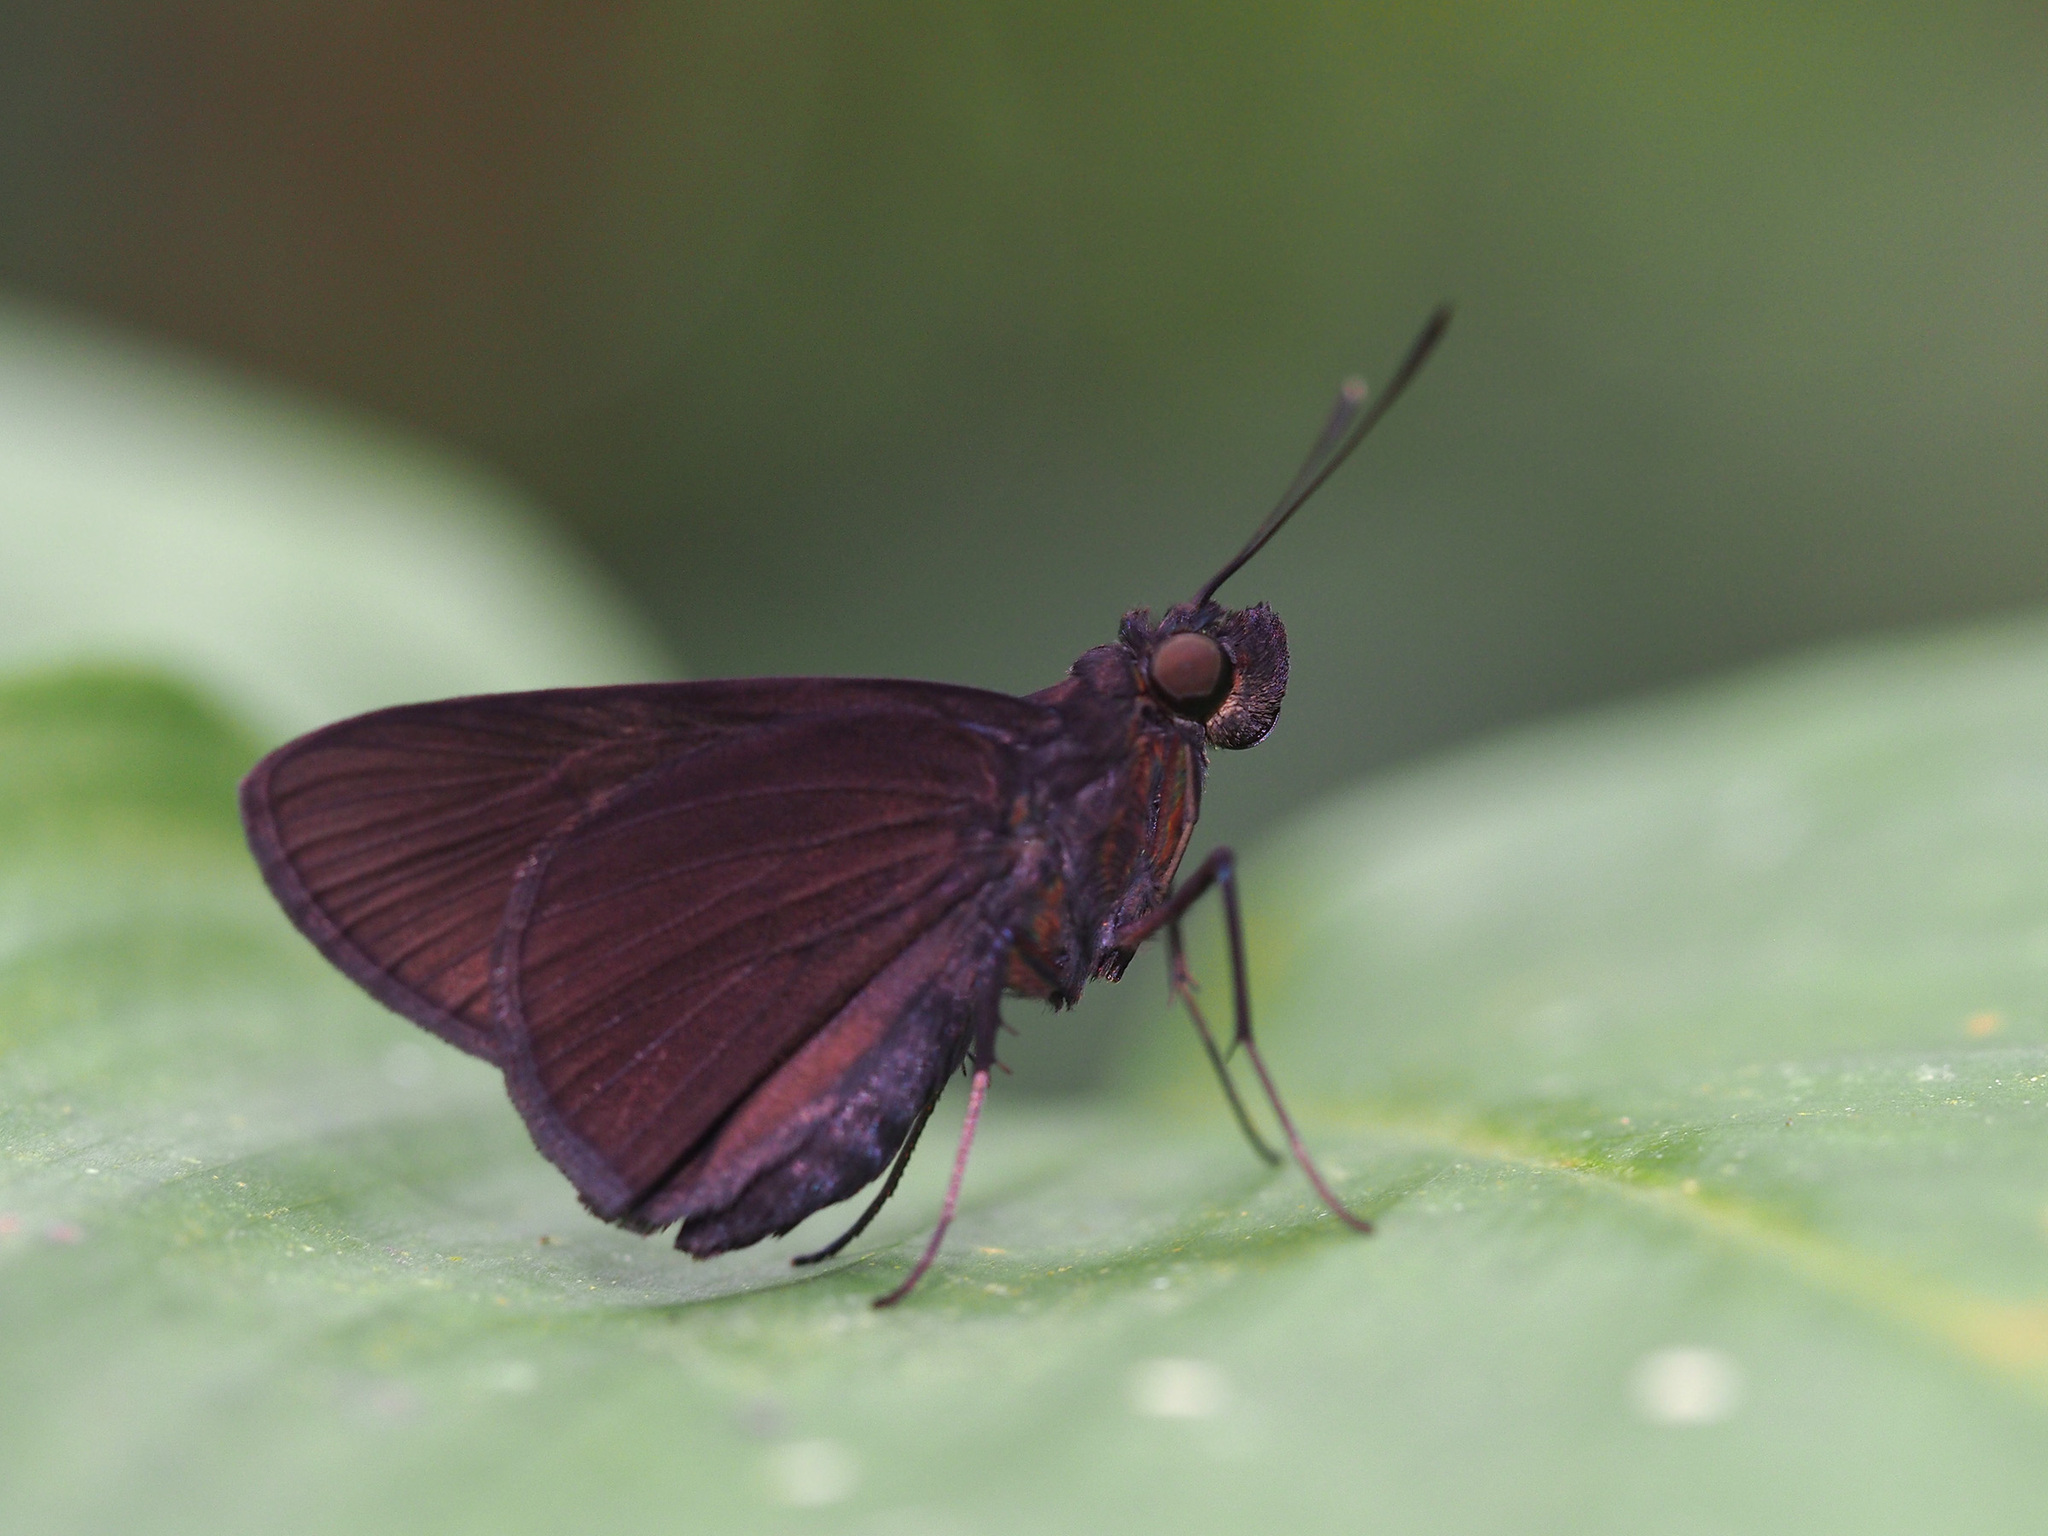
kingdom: Animalia
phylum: Arthropoda
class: Insecta
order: Lepidoptera
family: Hesperiidae
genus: Quedara
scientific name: Quedara monteithi
